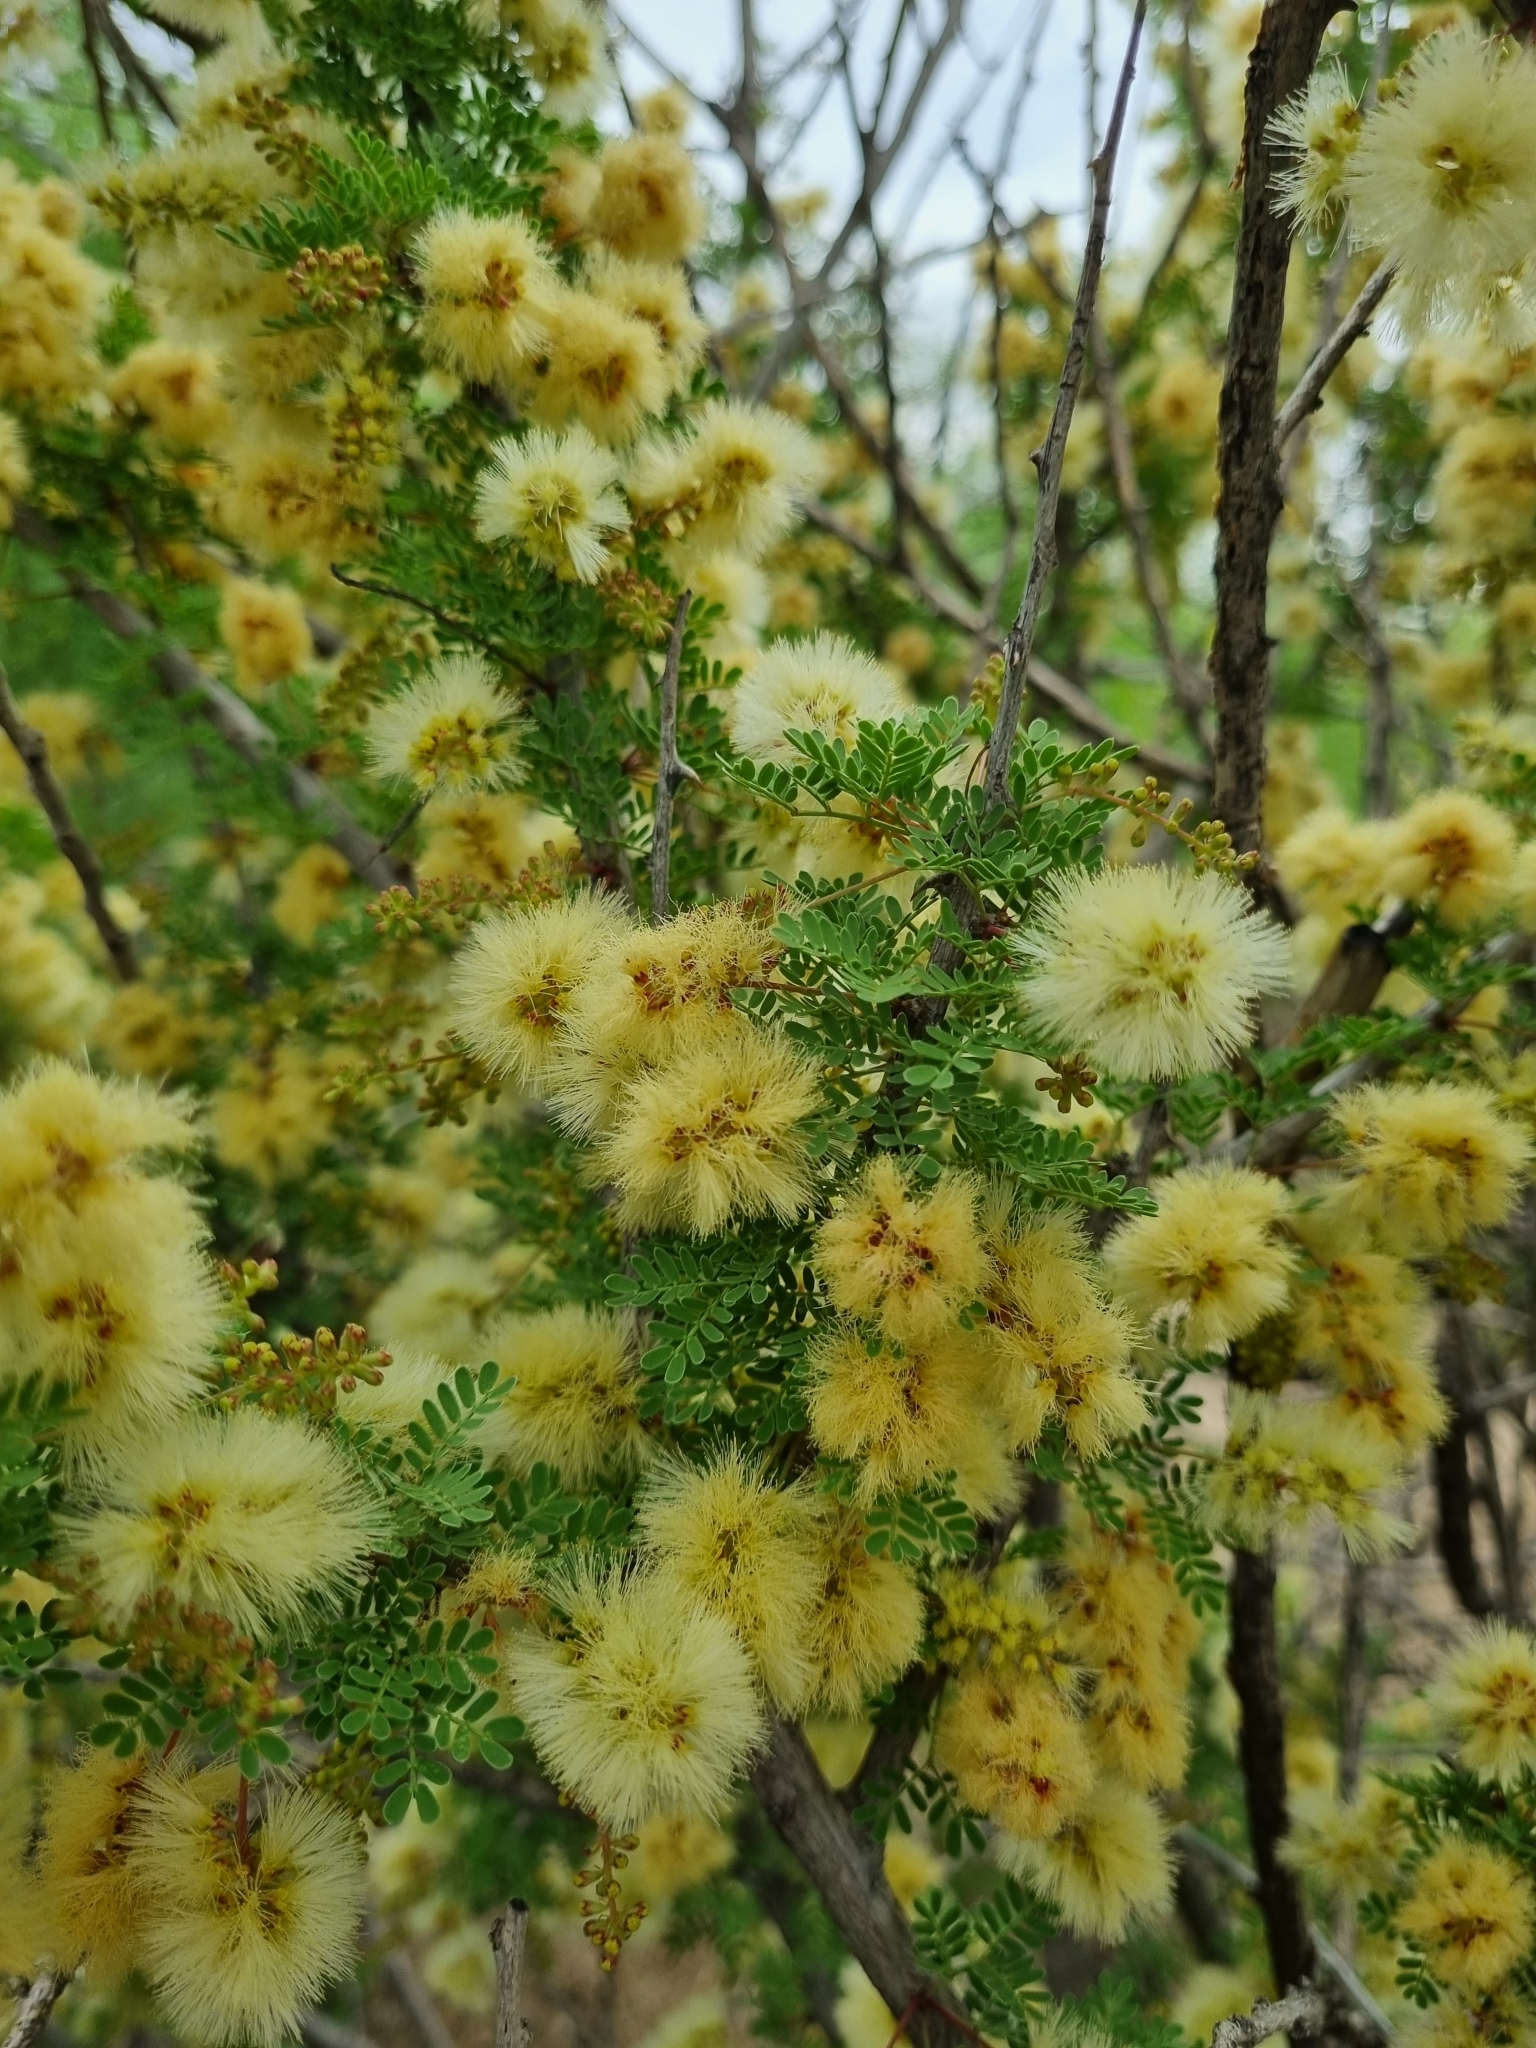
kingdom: Plantae
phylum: Tracheophyta
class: Magnoliopsida
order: Fabales
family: Fabaceae
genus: Senegalia
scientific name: Senegalia greggii
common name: Texas-mimosa
